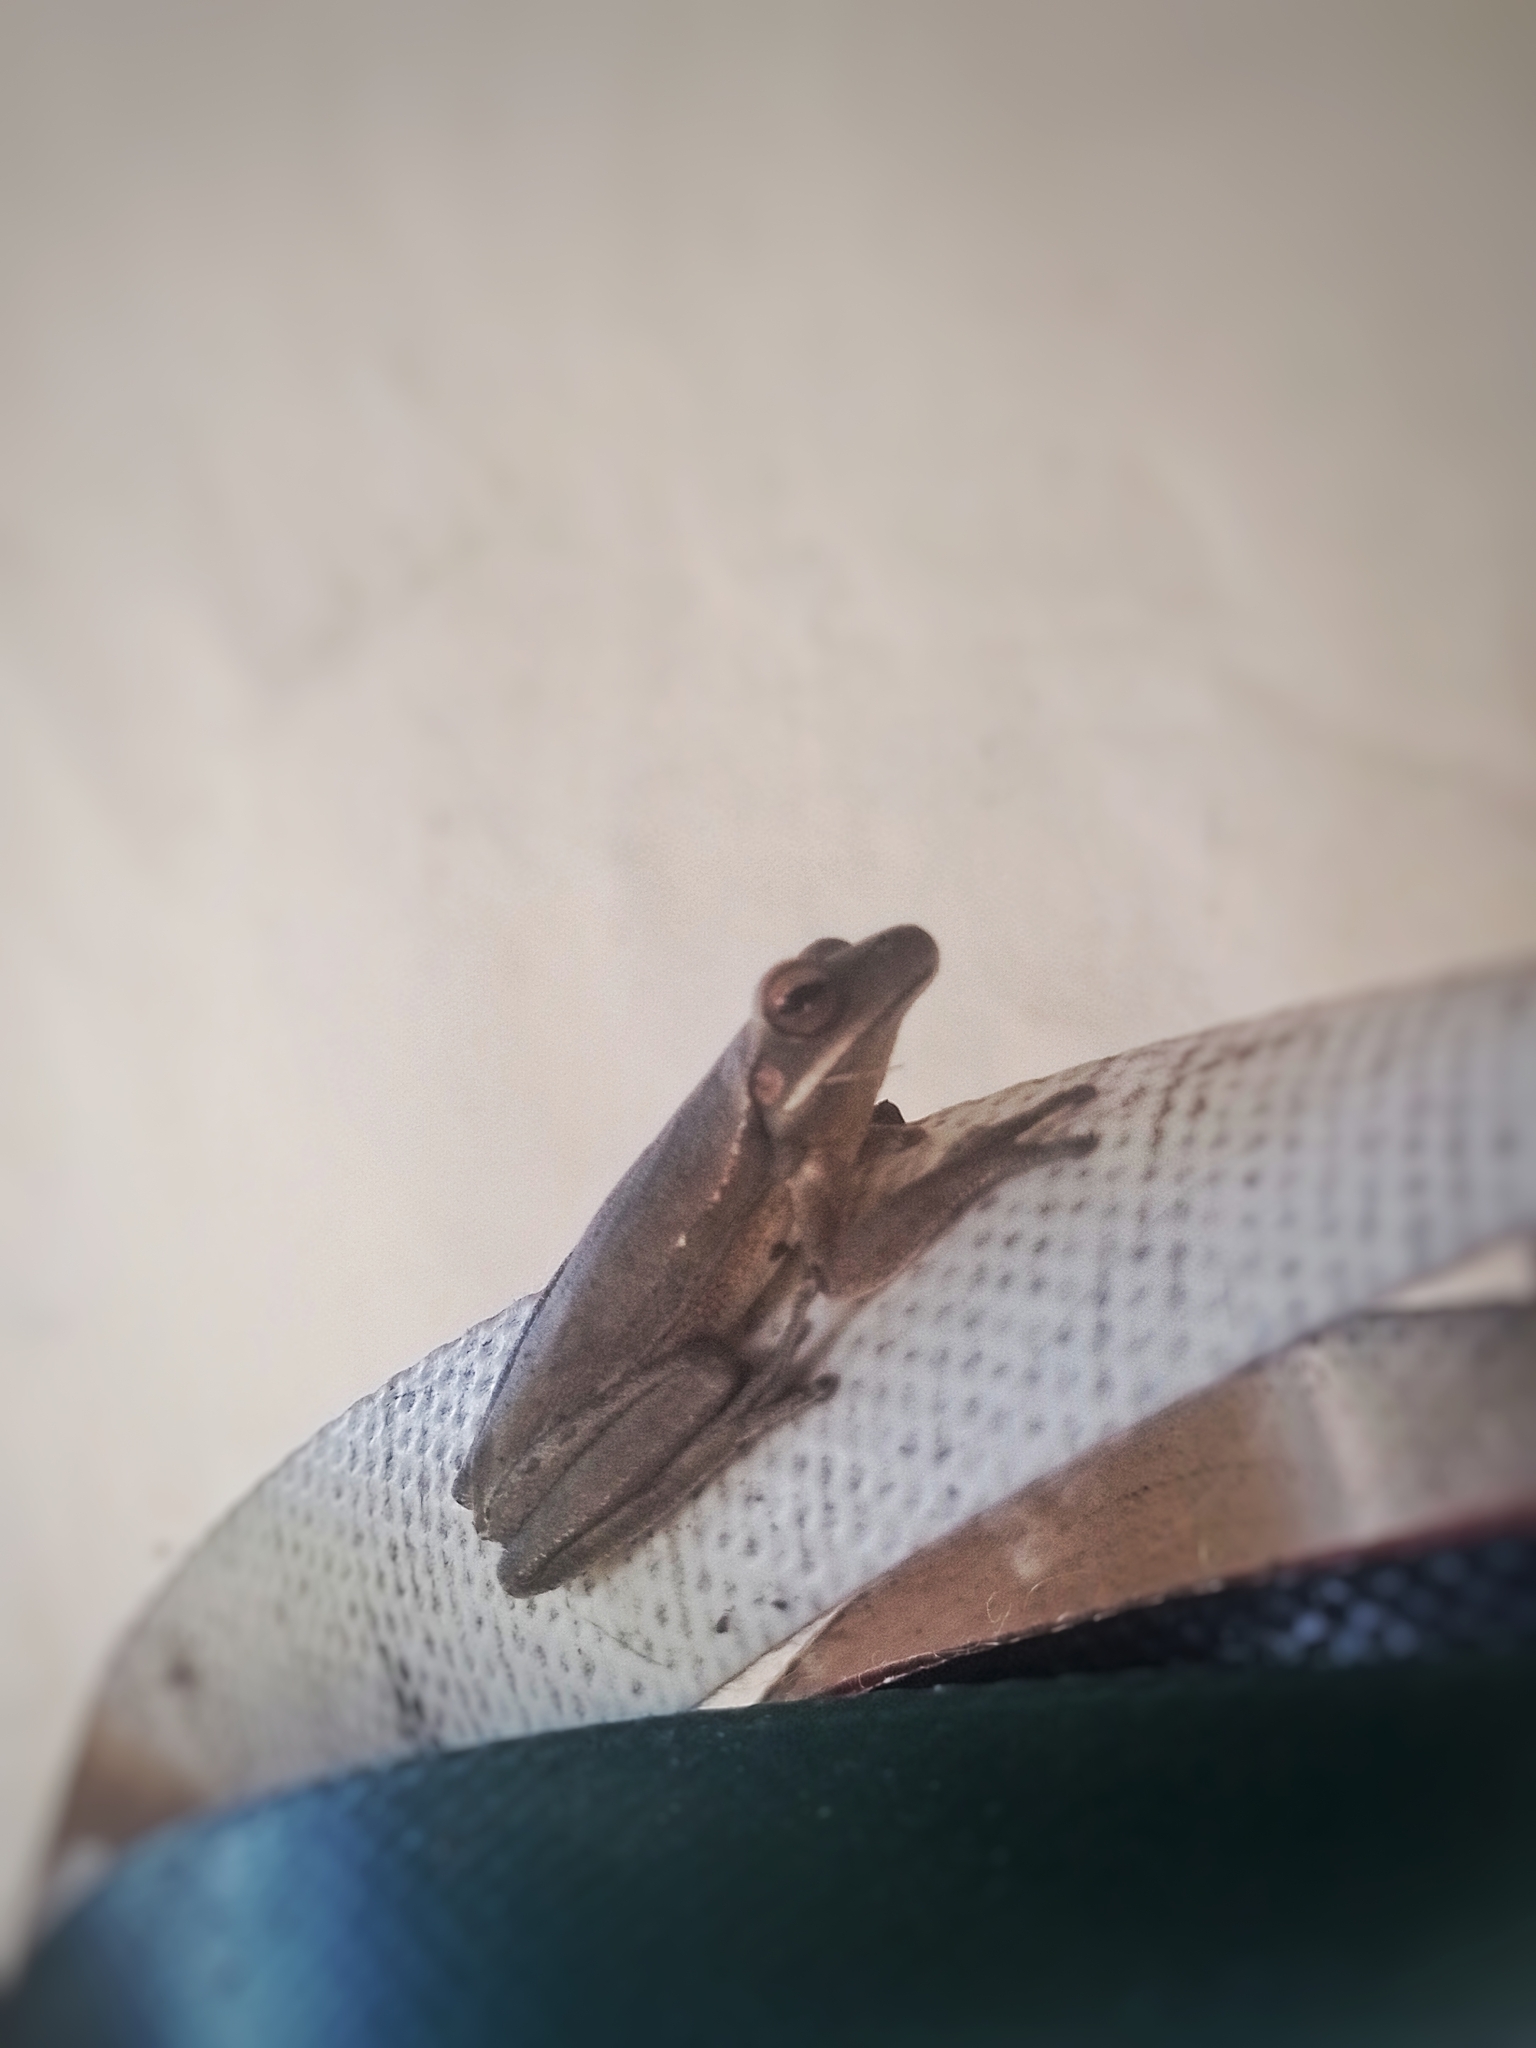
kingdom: Animalia
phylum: Chordata
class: Amphibia
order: Anura
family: Hylidae
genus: Boana
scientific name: Boana pulchella
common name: Montevideo treefrog
